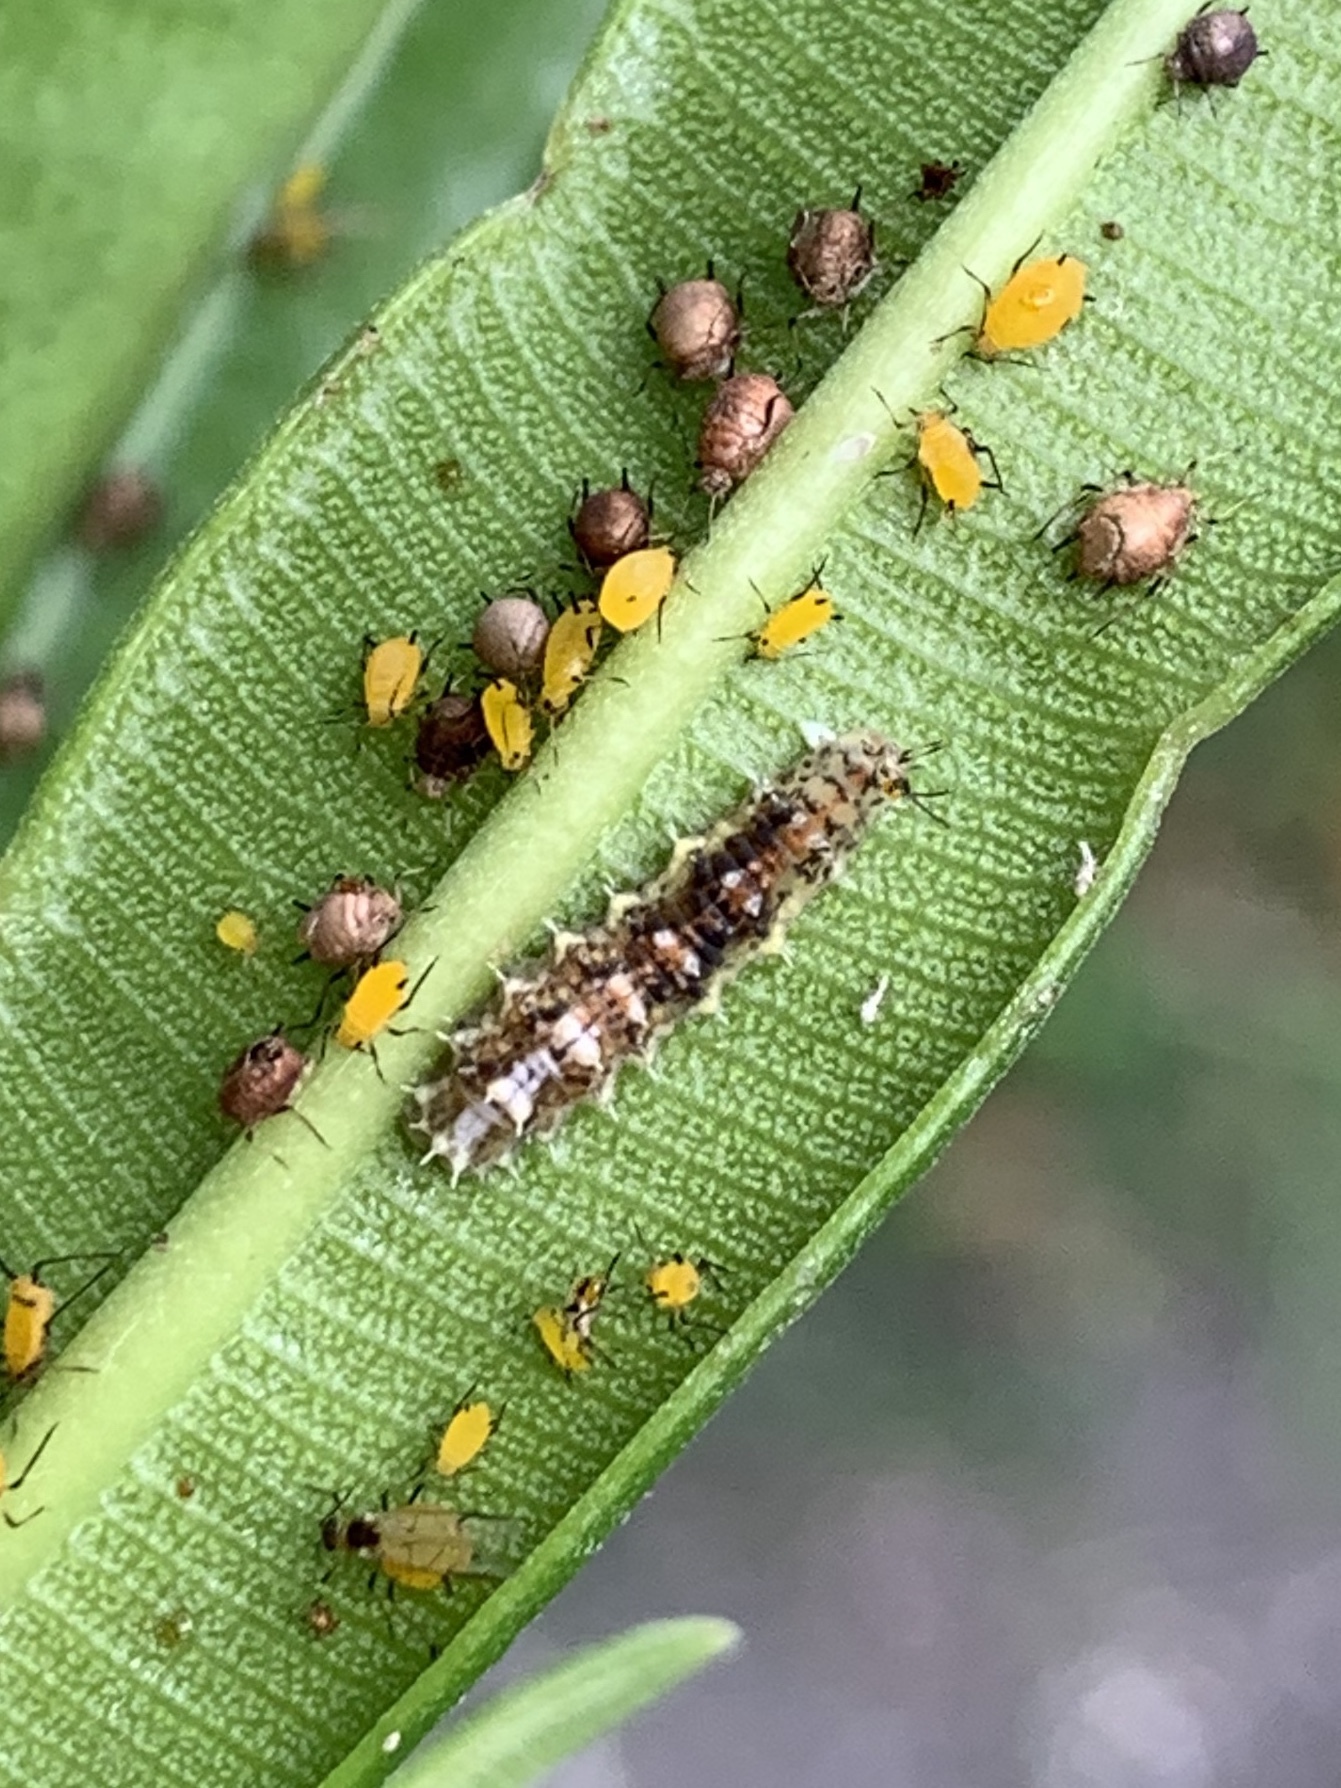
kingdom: Animalia
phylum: Arthropoda
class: Insecta
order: Diptera
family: Syrphidae
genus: Dioprosopa
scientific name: Dioprosopa clavatus
